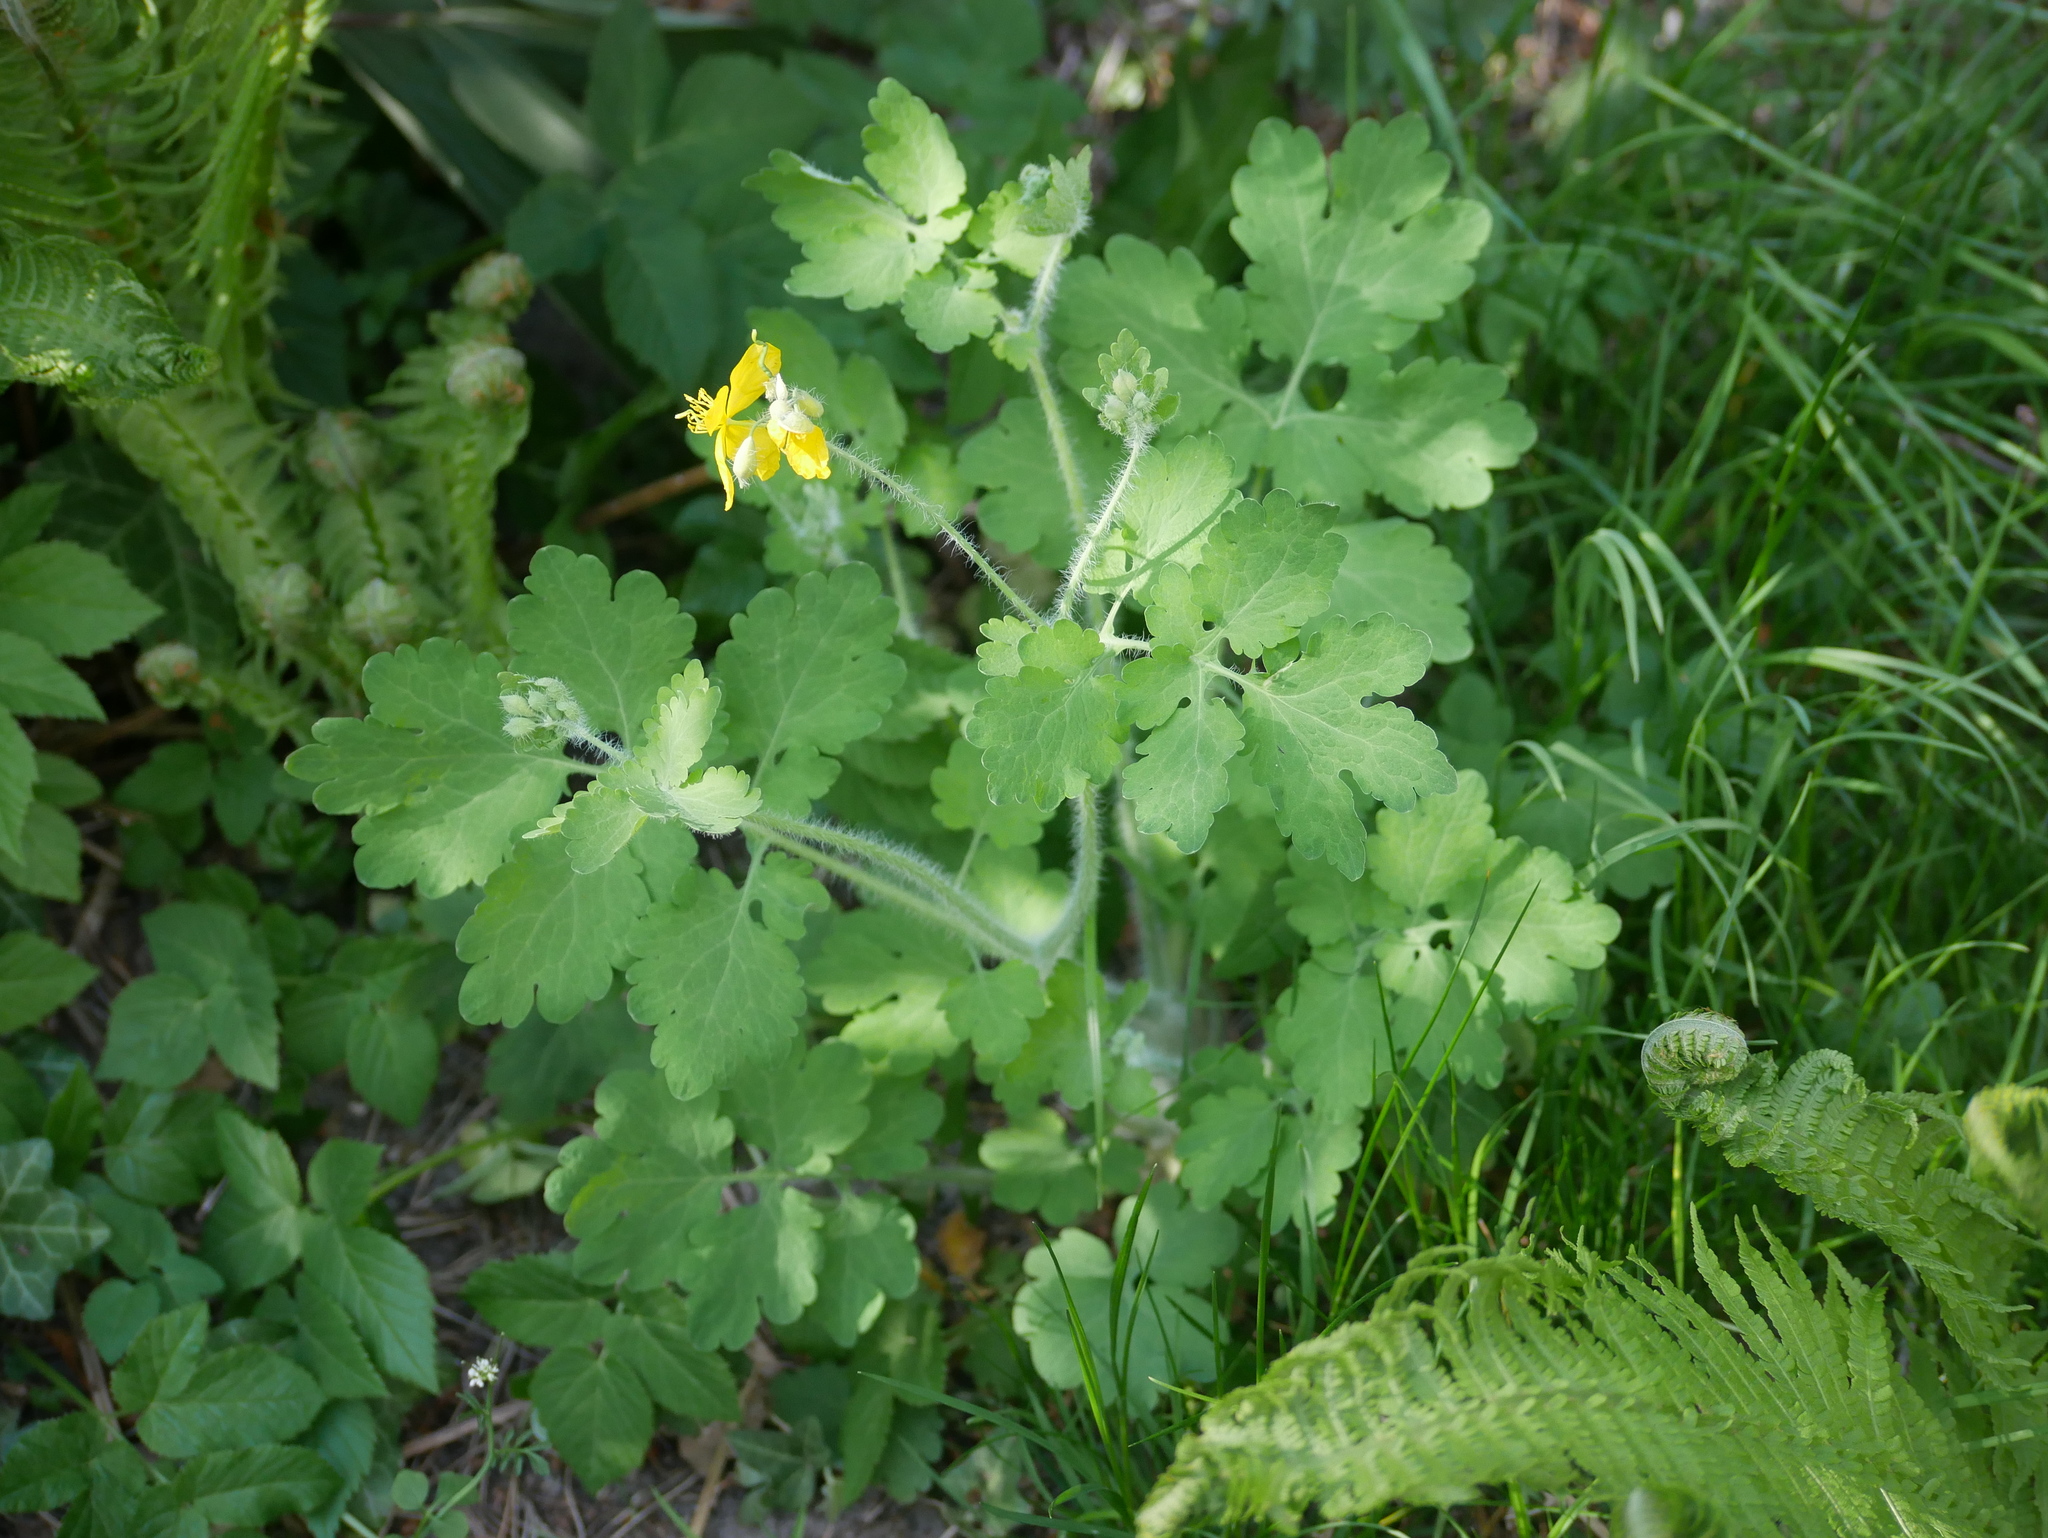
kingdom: Plantae
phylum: Tracheophyta
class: Magnoliopsida
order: Ranunculales
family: Papaveraceae
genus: Chelidonium
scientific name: Chelidonium majus
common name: Greater celandine
